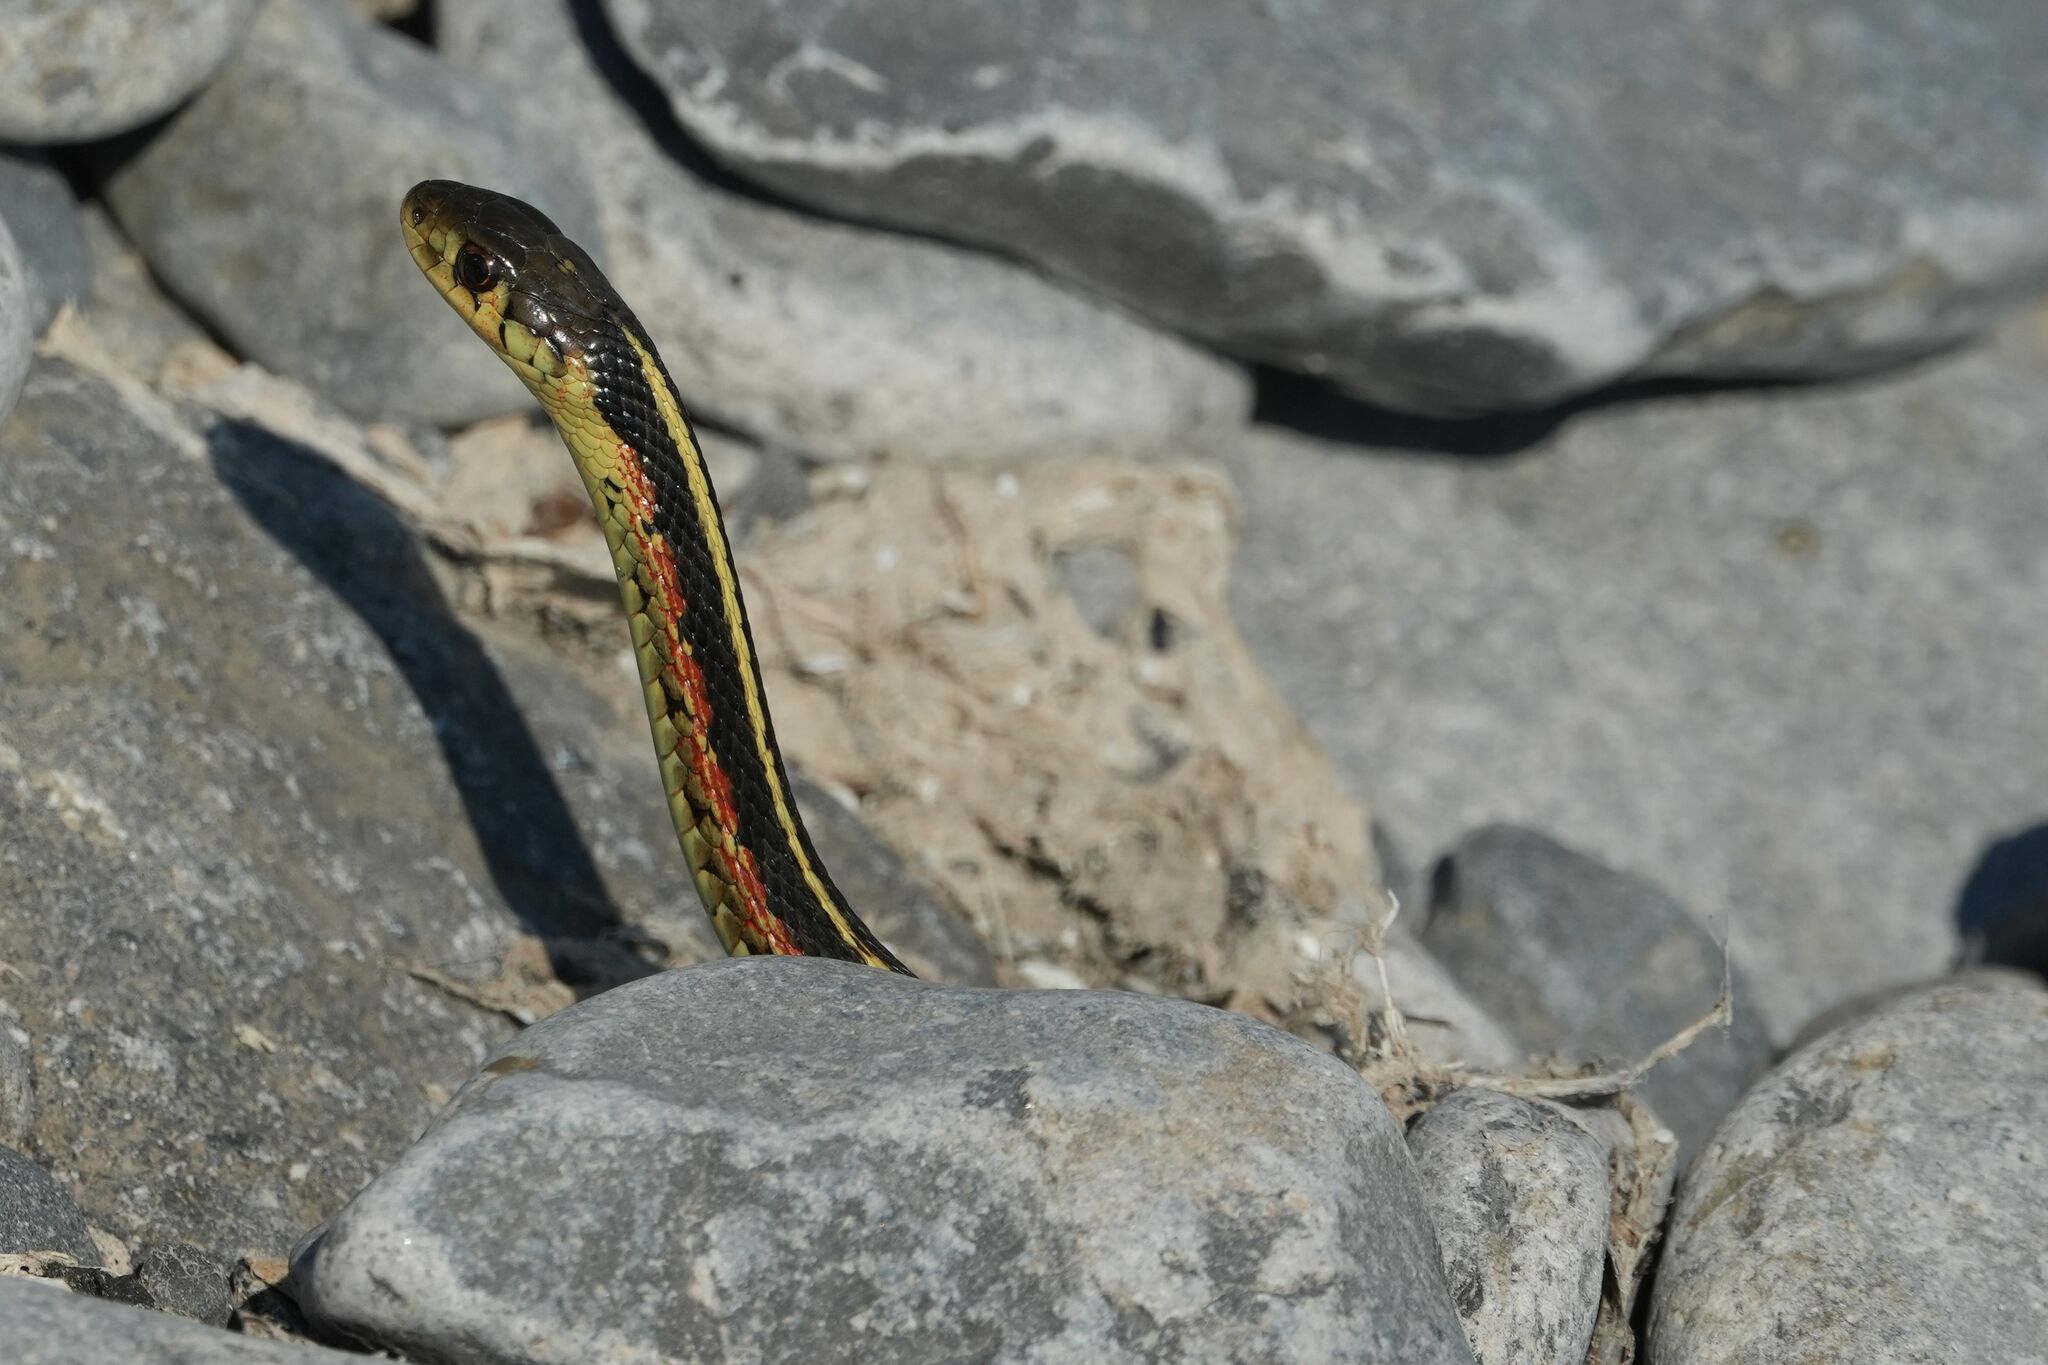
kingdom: Animalia
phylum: Chordata
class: Squamata
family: Colubridae
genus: Thamnophis
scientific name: Thamnophis sirtalis
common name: Common garter snake
